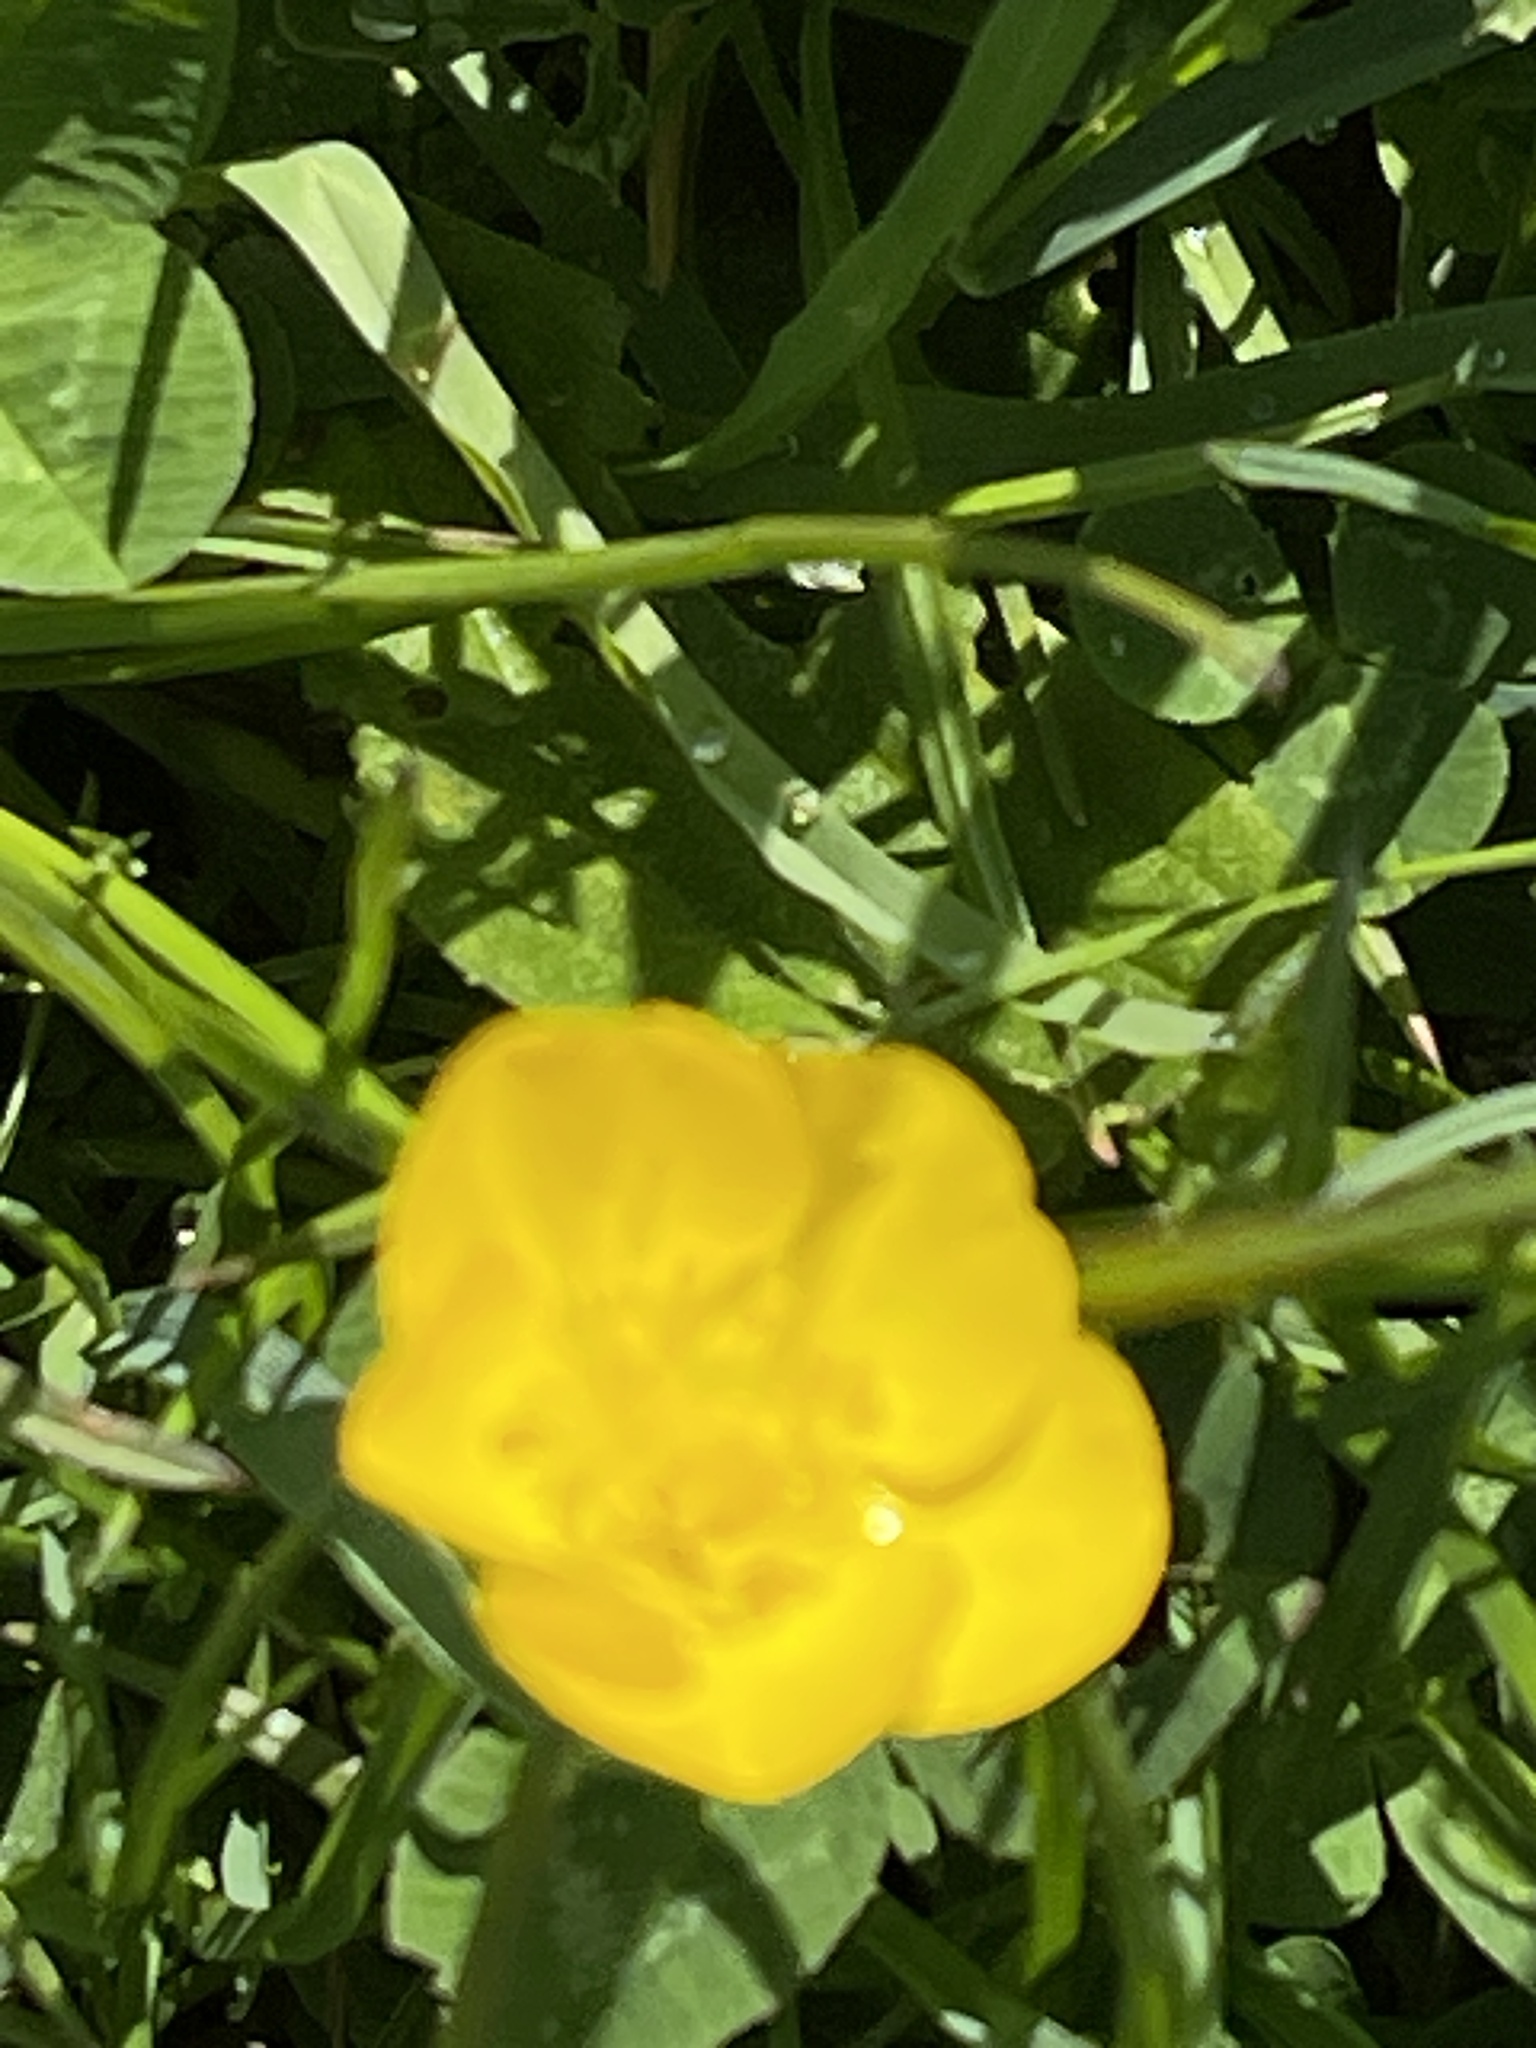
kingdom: Plantae
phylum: Tracheophyta
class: Magnoliopsida
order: Ranunculales
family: Ranunculaceae
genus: Ranunculus
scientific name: Ranunculus bulbosus
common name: Bulbous buttercup
